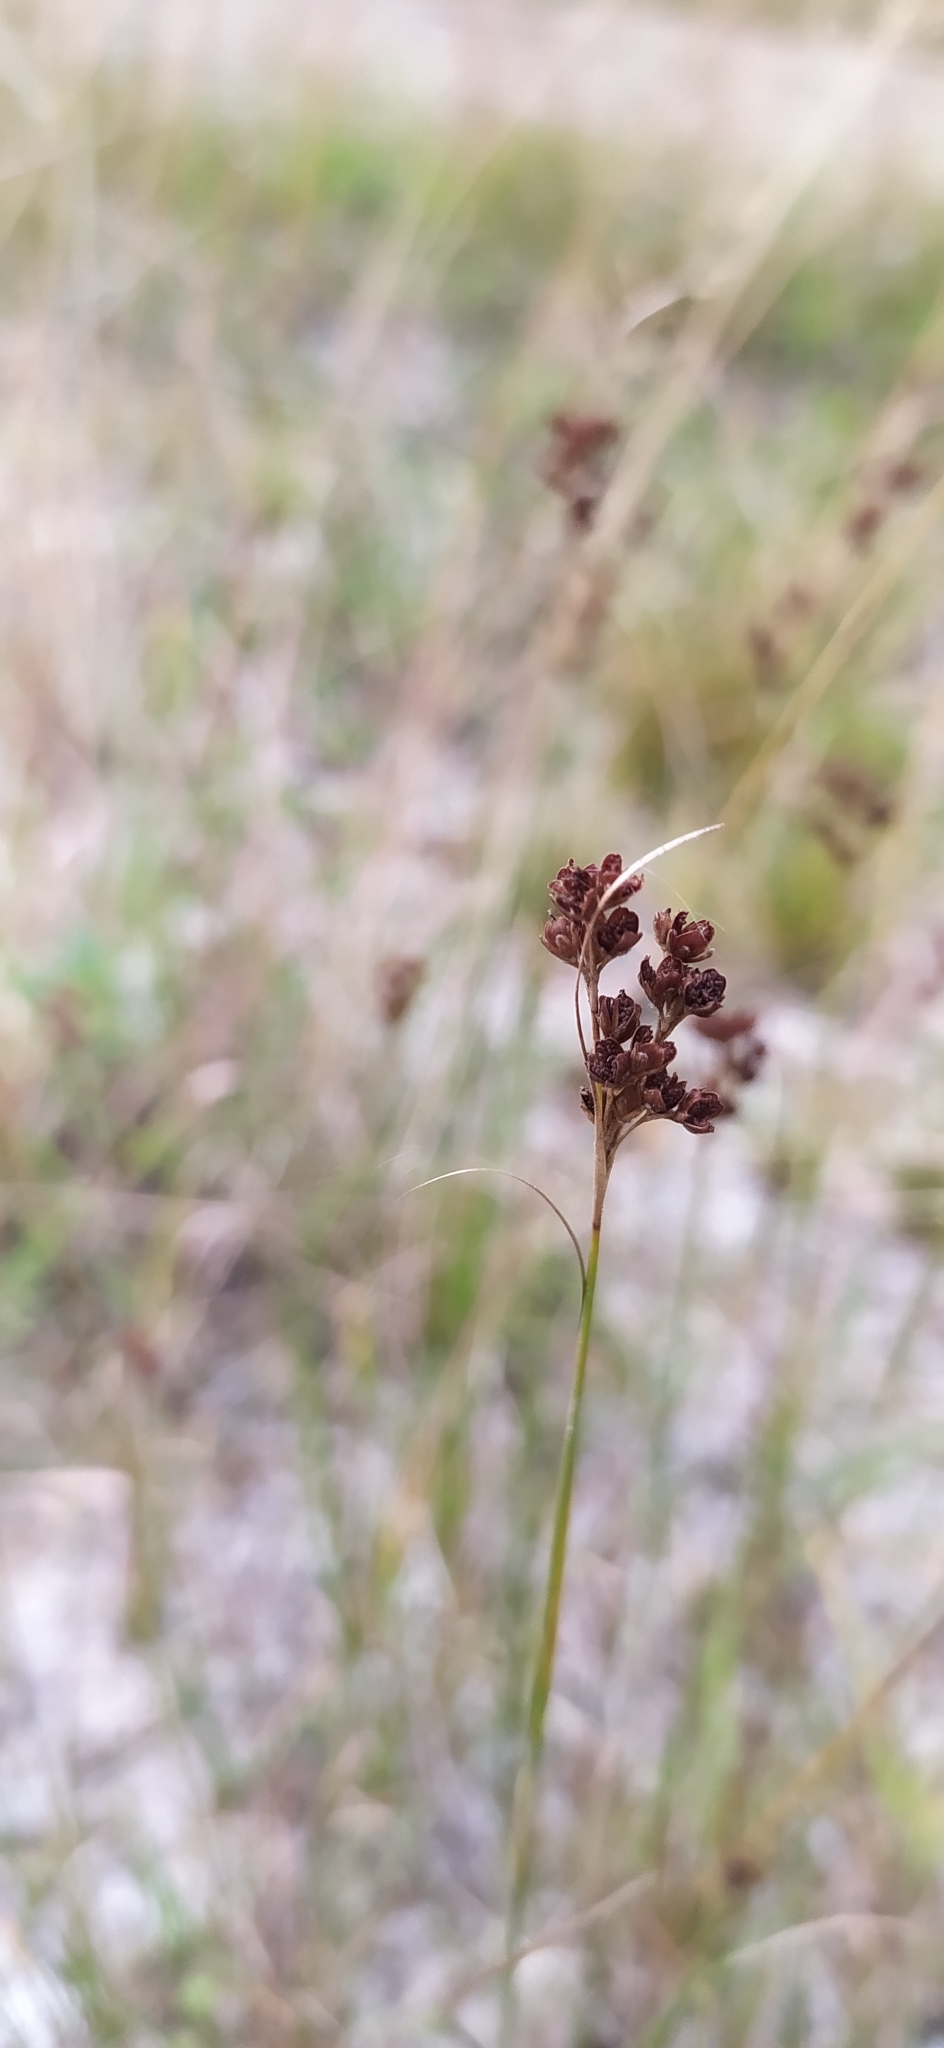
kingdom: Plantae
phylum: Tracheophyta
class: Liliopsida
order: Poales
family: Juncaceae
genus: Juncus
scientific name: Juncus compressus
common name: Round-fruited rush
